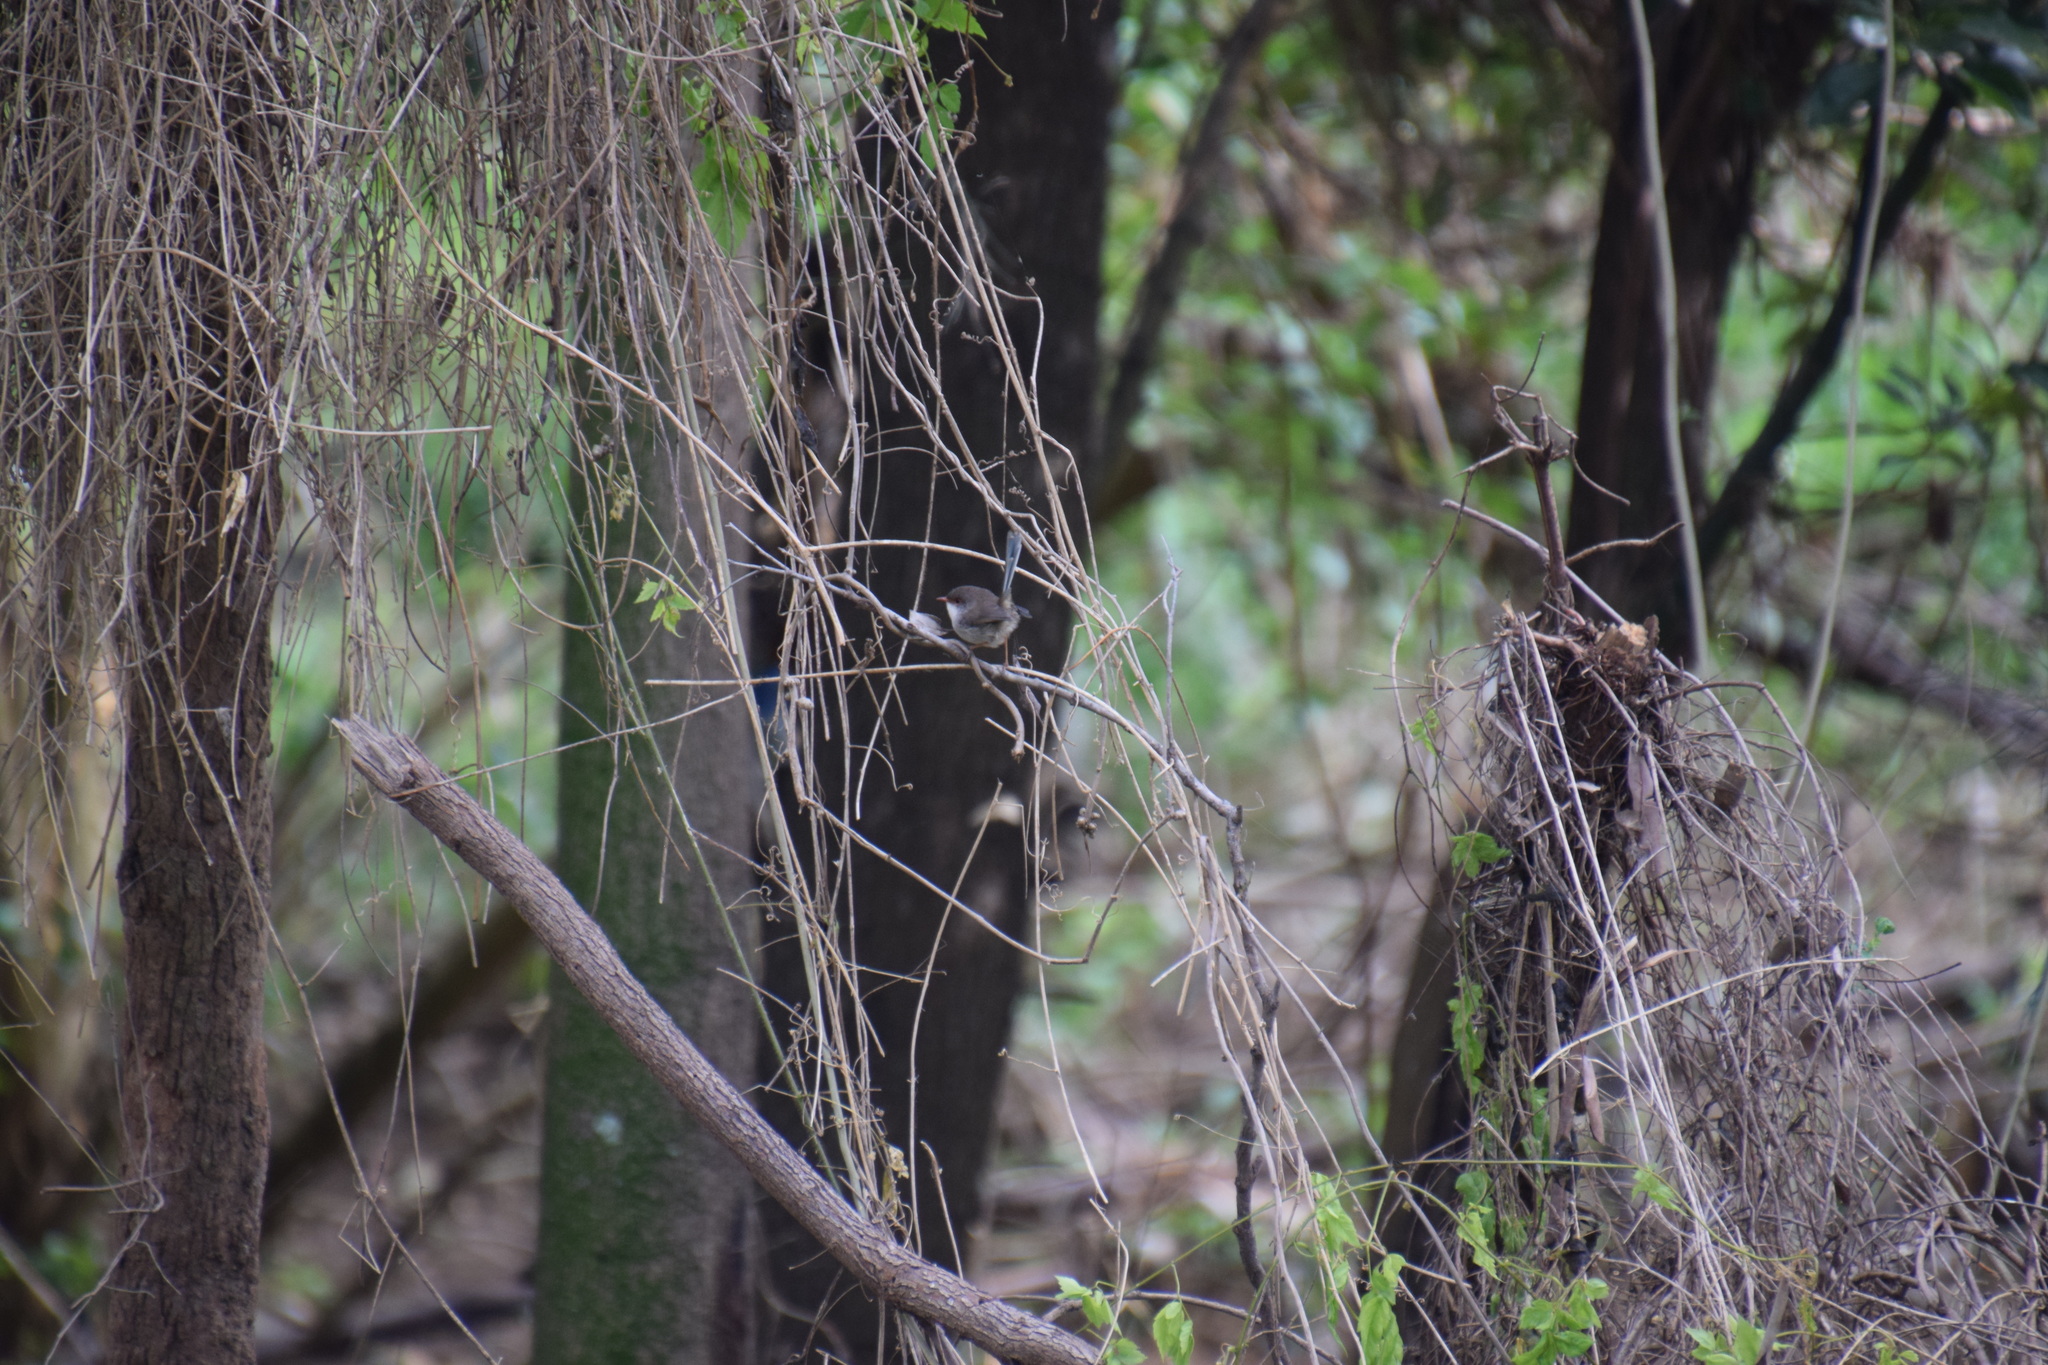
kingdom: Animalia
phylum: Chordata
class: Aves
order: Passeriformes
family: Maluridae
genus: Malurus
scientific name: Malurus cyaneus
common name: Superb fairywren
